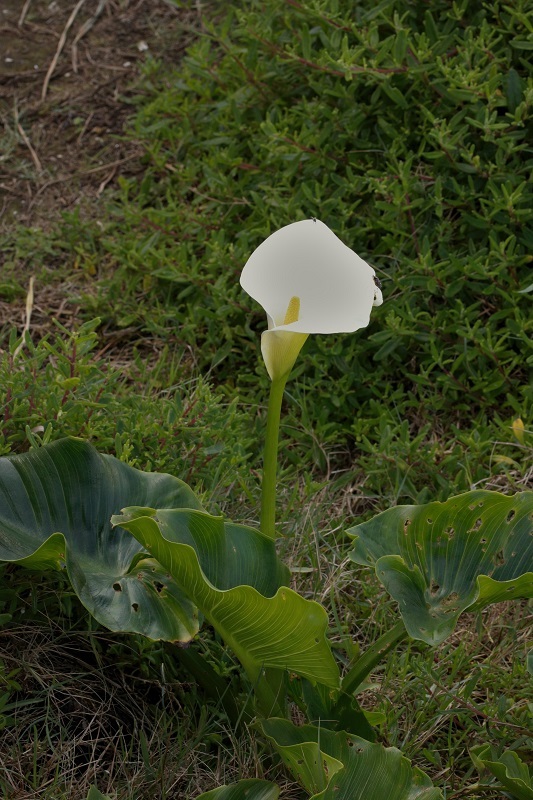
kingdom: Plantae
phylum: Tracheophyta
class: Liliopsida
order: Alismatales
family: Araceae
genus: Zantedeschia
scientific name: Zantedeschia aethiopica
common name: Altar-lily
